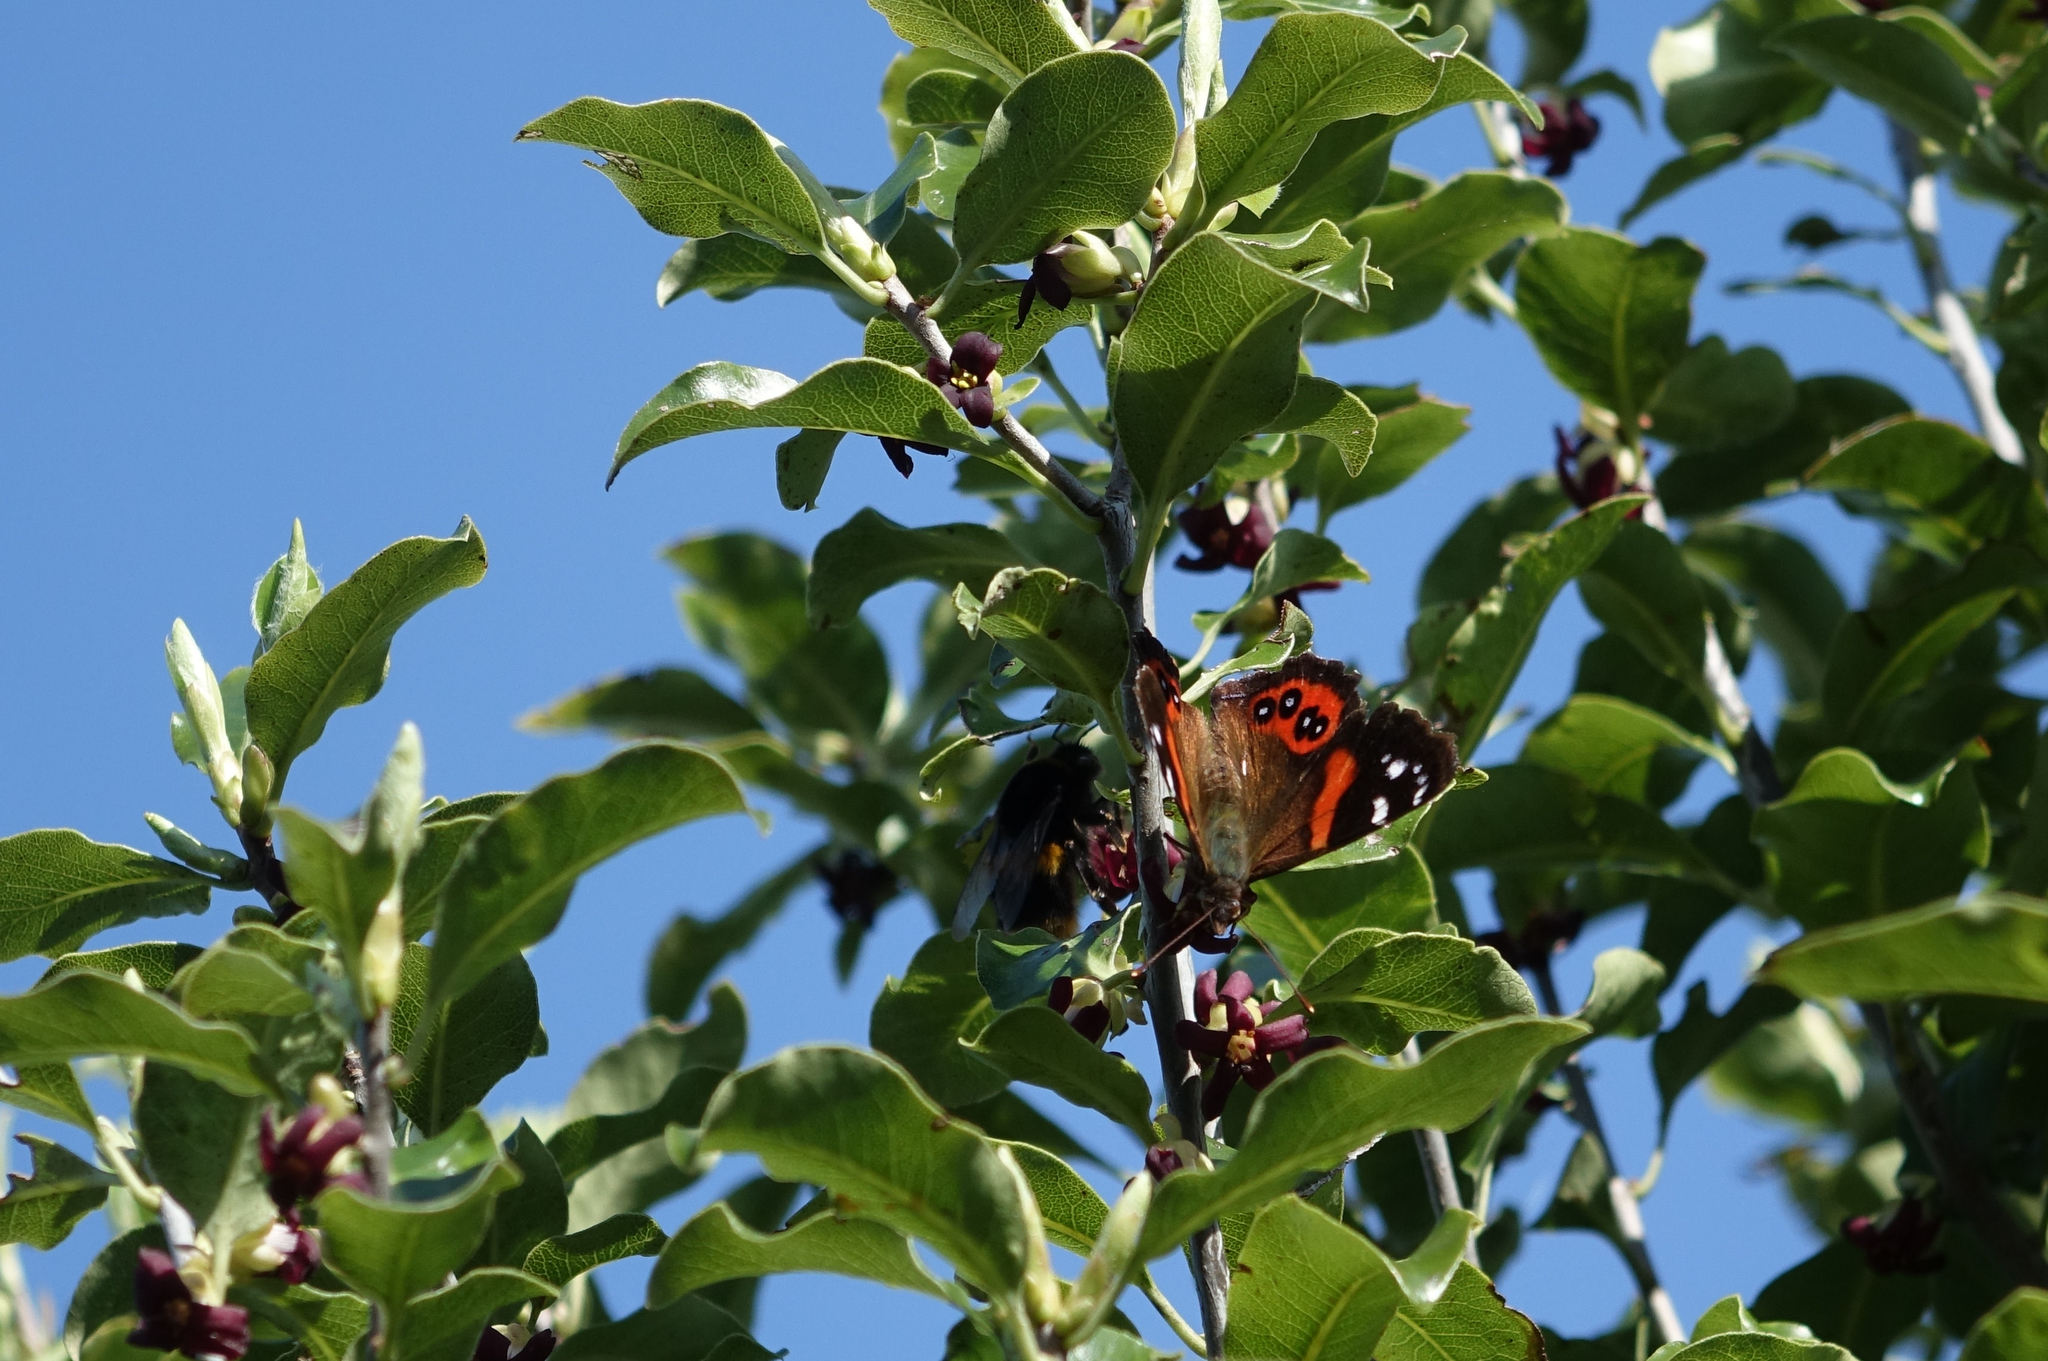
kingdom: Animalia
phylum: Arthropoda
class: Insecta
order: Lepidoptera
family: Nymphalidae
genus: Vanessa
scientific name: Vanessa gonerilla
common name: New zealand red admiral
